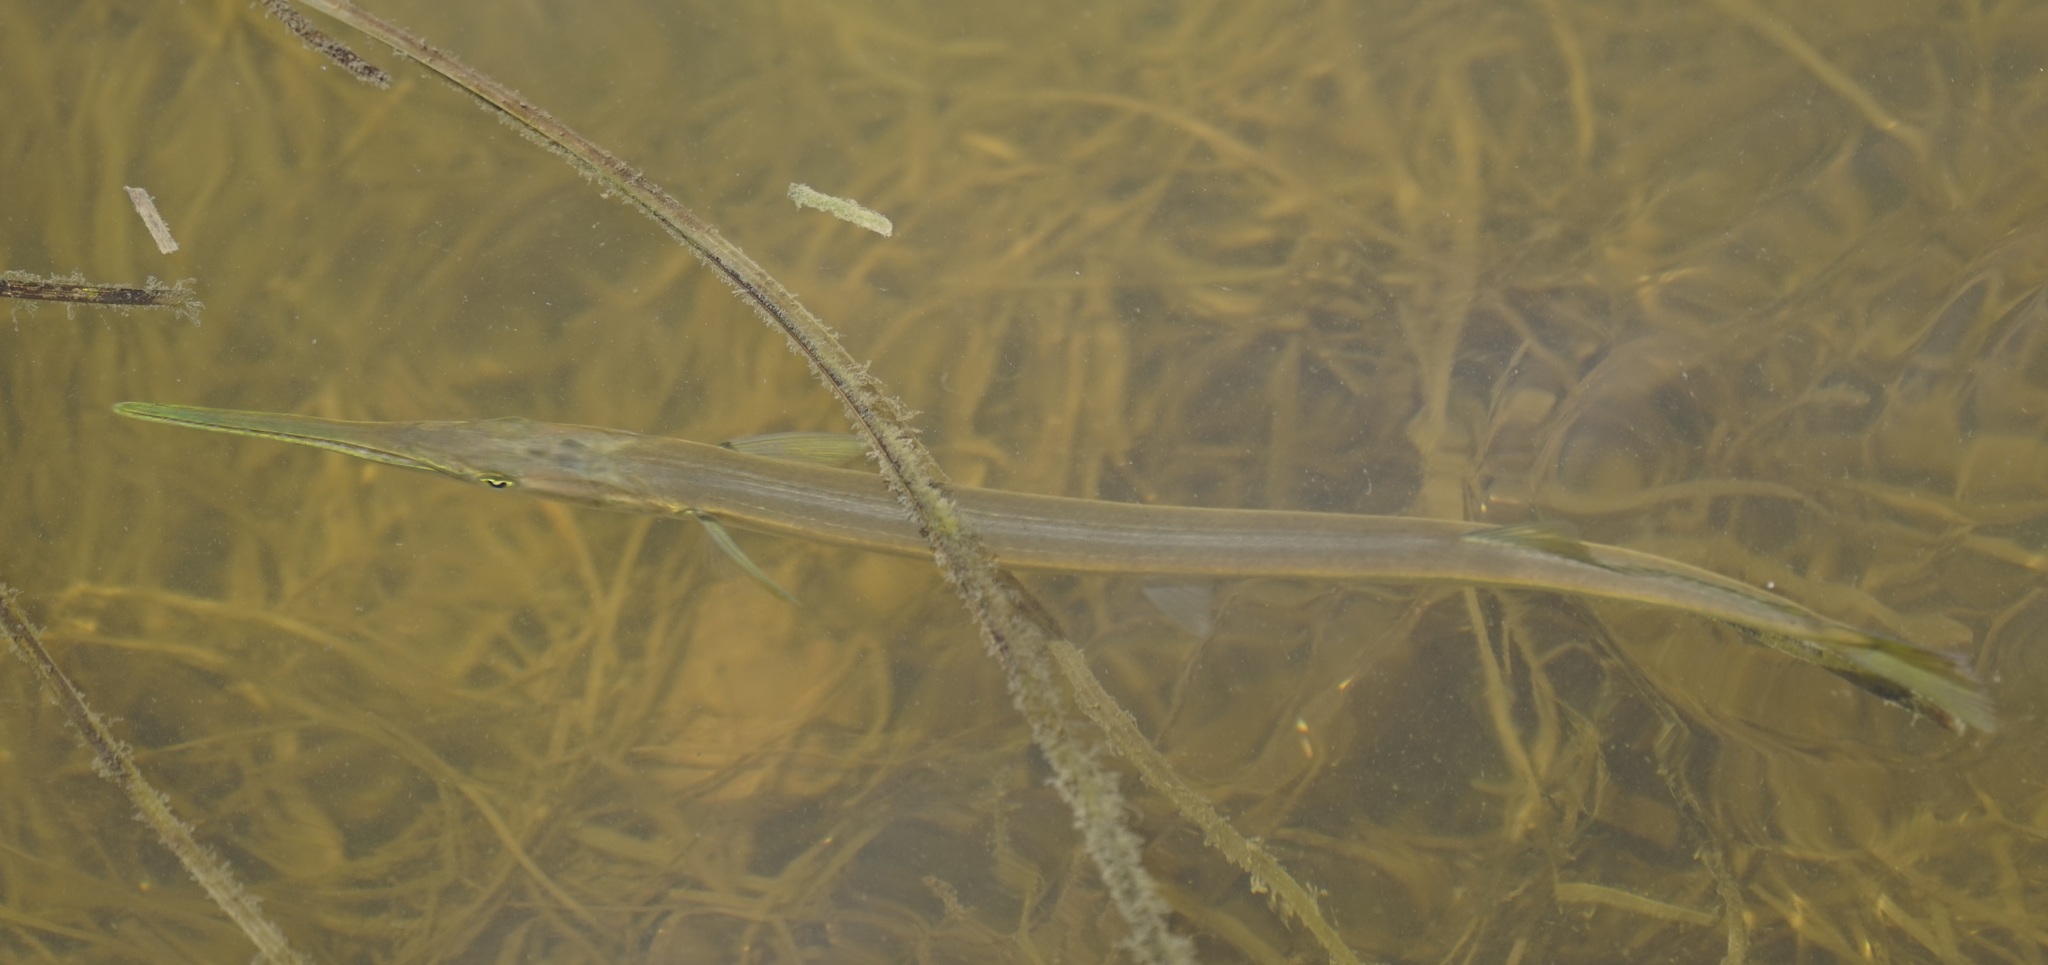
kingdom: Animalia
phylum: Chordata
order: Beloniformes
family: Belonidae
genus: Tylosurus
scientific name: Tylosurus gavialoides
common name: Stout longtom
